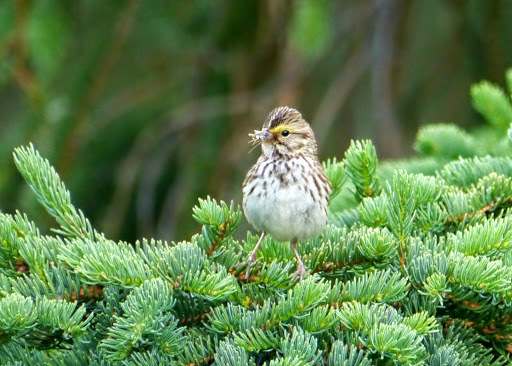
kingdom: Animalia
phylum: Chordata
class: Aves
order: Passeriformes
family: Passerellidae
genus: Passerculus
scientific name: Passerculus sandwichensis
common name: Savannah sparrow
